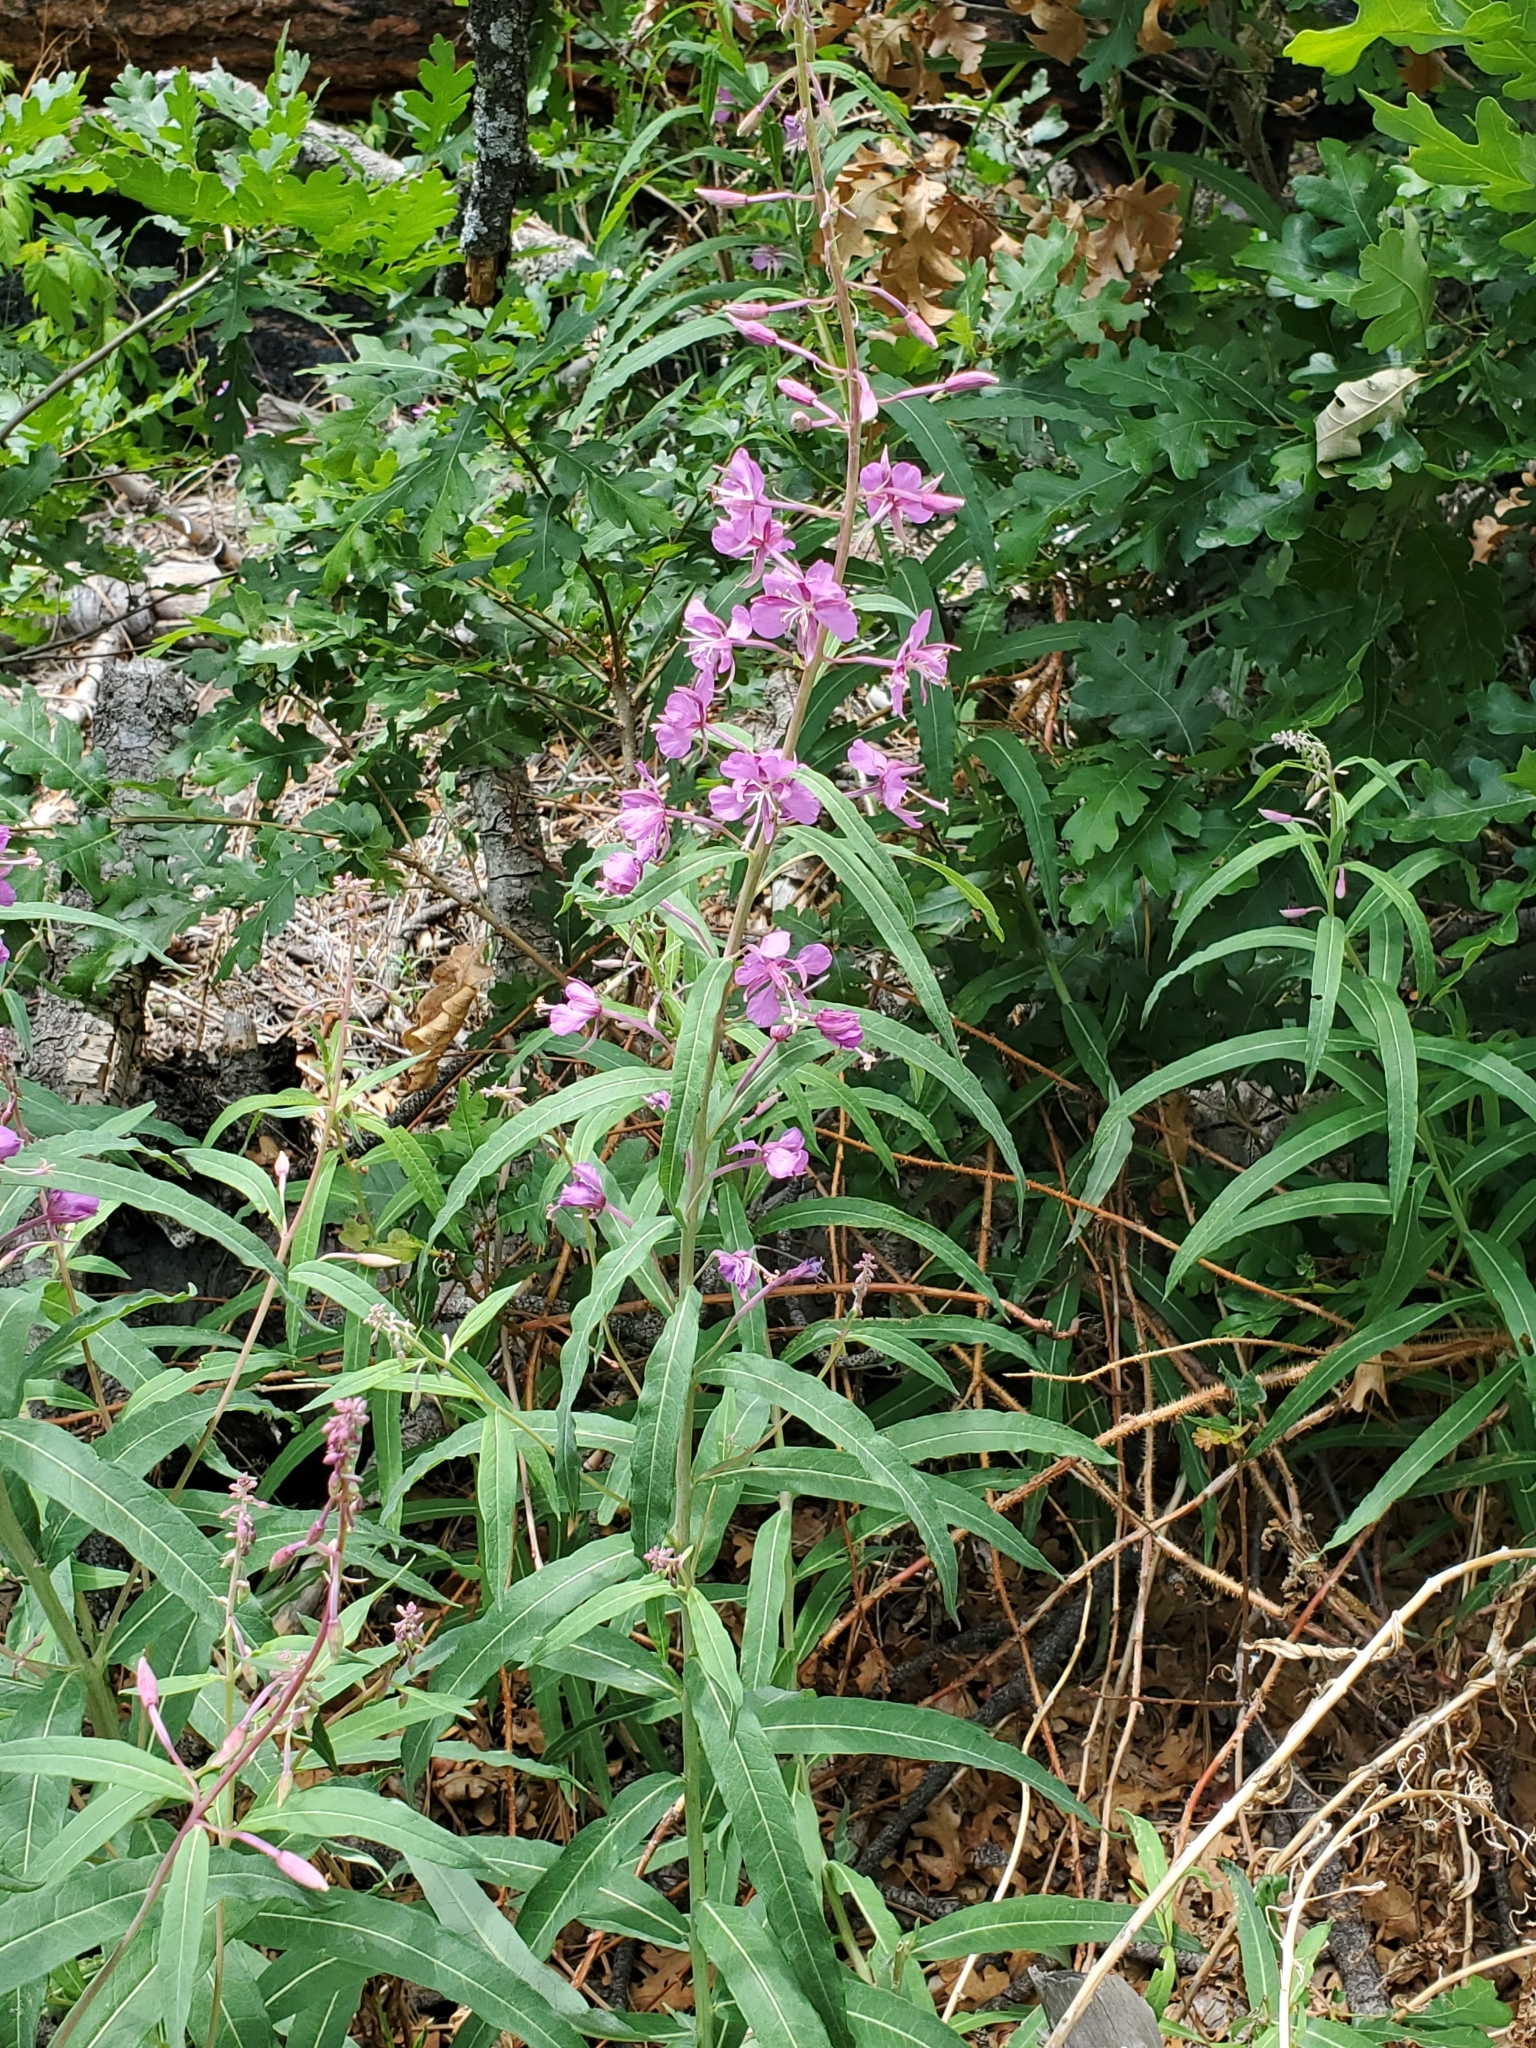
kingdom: Plantae
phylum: Tracheophyta
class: Magnoliopsida
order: Myrtales
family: Onagraceae
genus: Chamaenerion
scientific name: Chamaenerion angustifolium
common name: Fireweed
